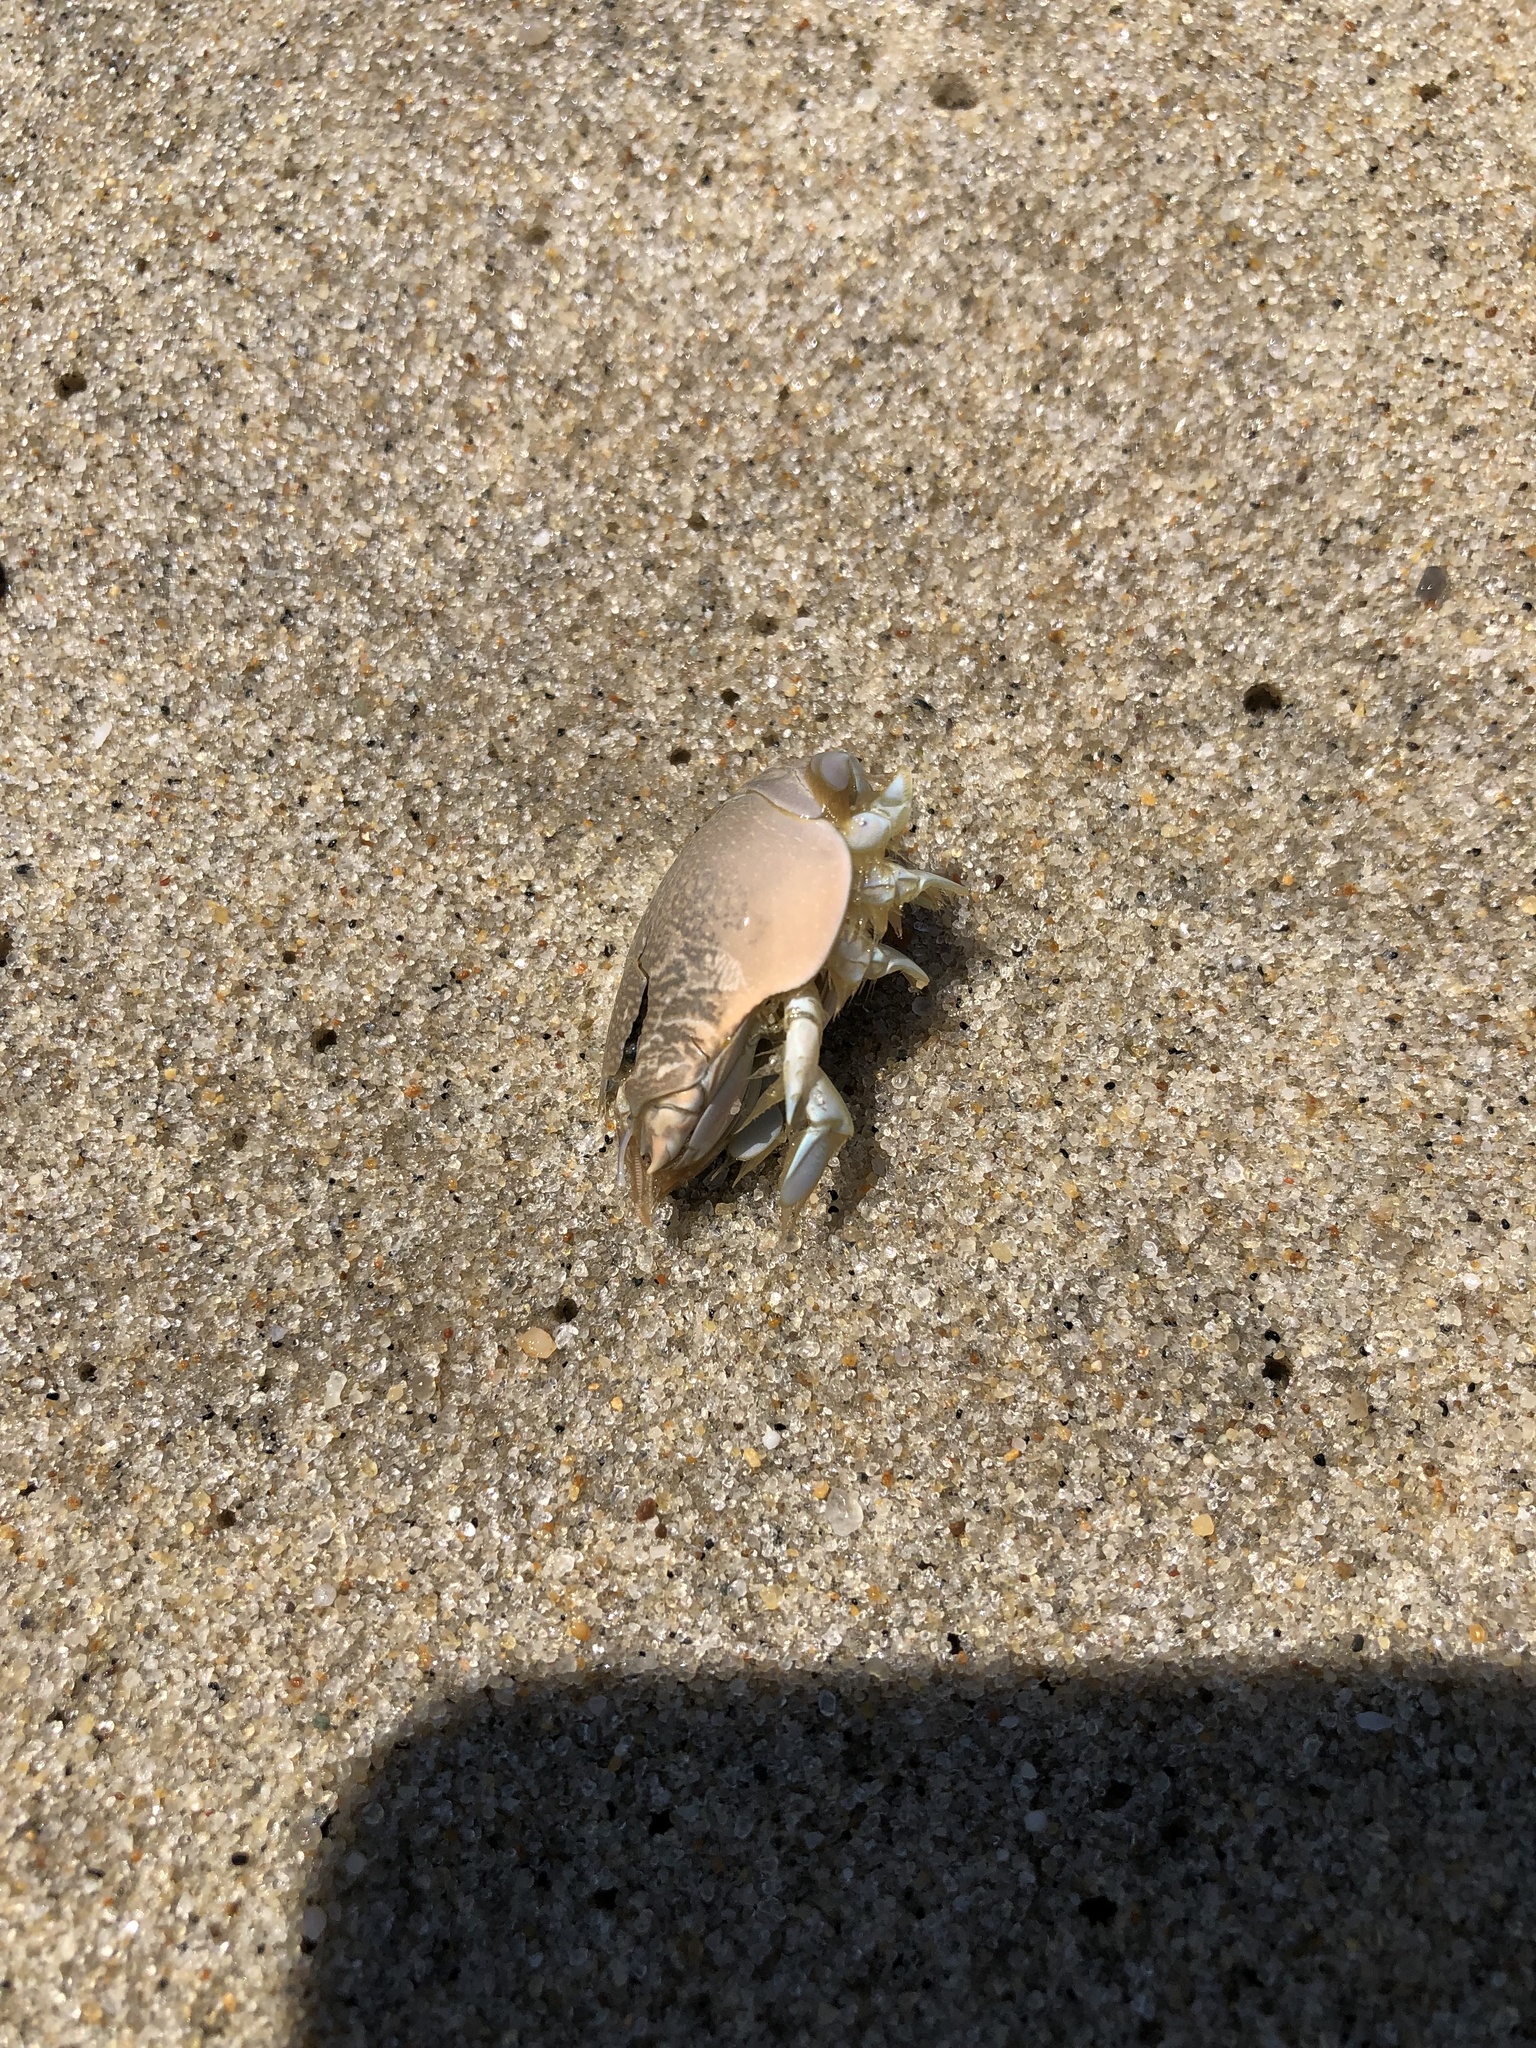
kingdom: Animalia
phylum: Arthropoda
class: Malacostraca
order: Decapoda
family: Hippidae
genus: Emerita
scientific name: Emerita talpoida
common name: Atlantic sand crab
